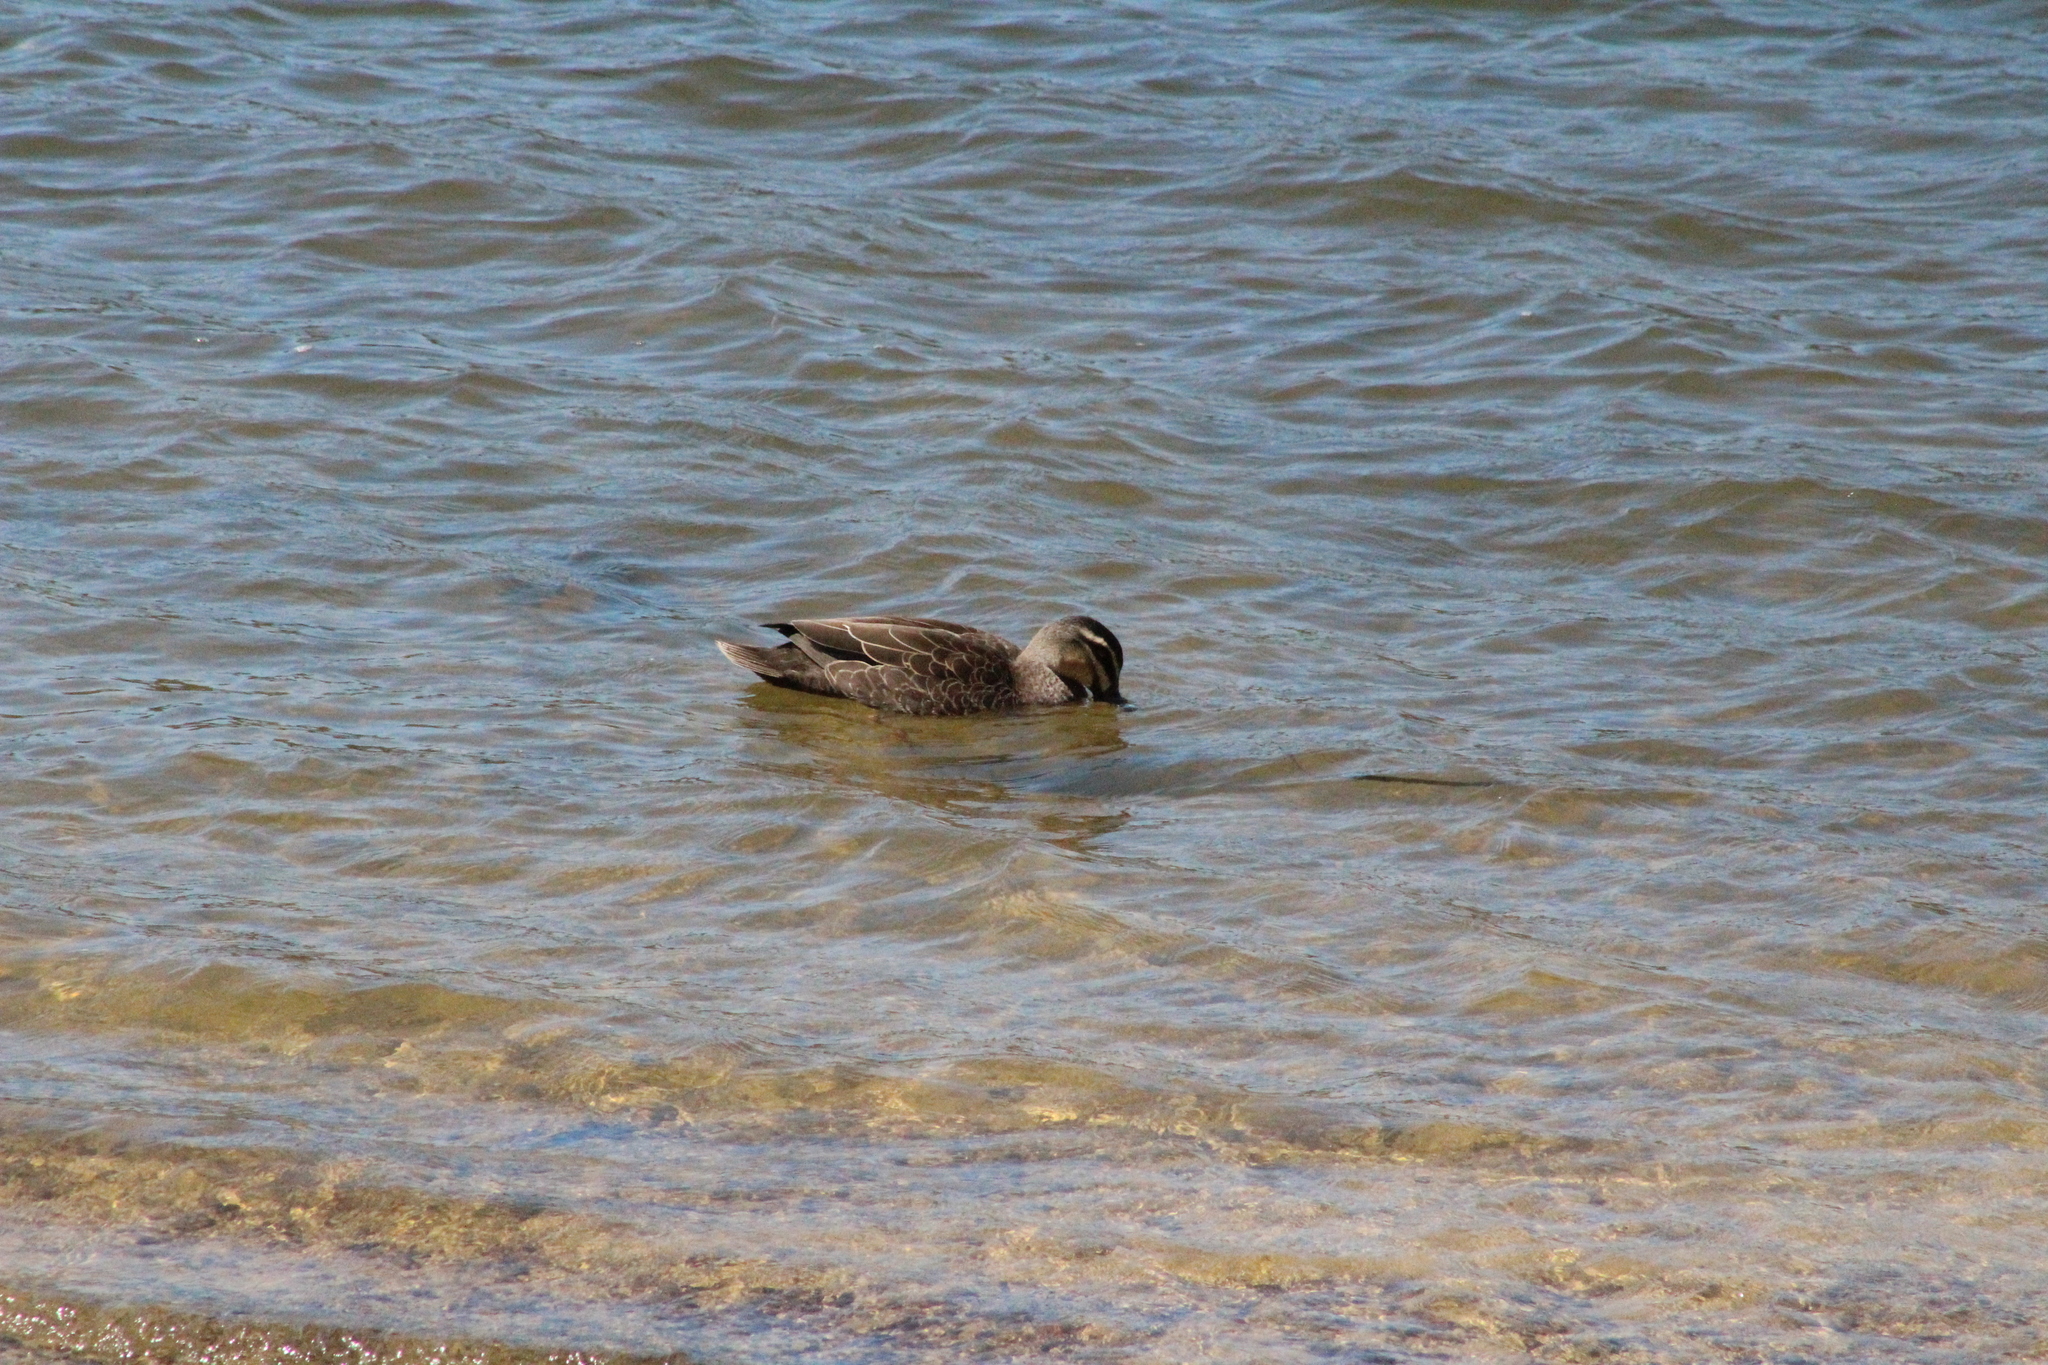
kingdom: Animalia
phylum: Chordata
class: Aves
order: Anseriformes
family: Anatidae
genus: Anas
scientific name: Anas superciliosa
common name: Pacific black duck
